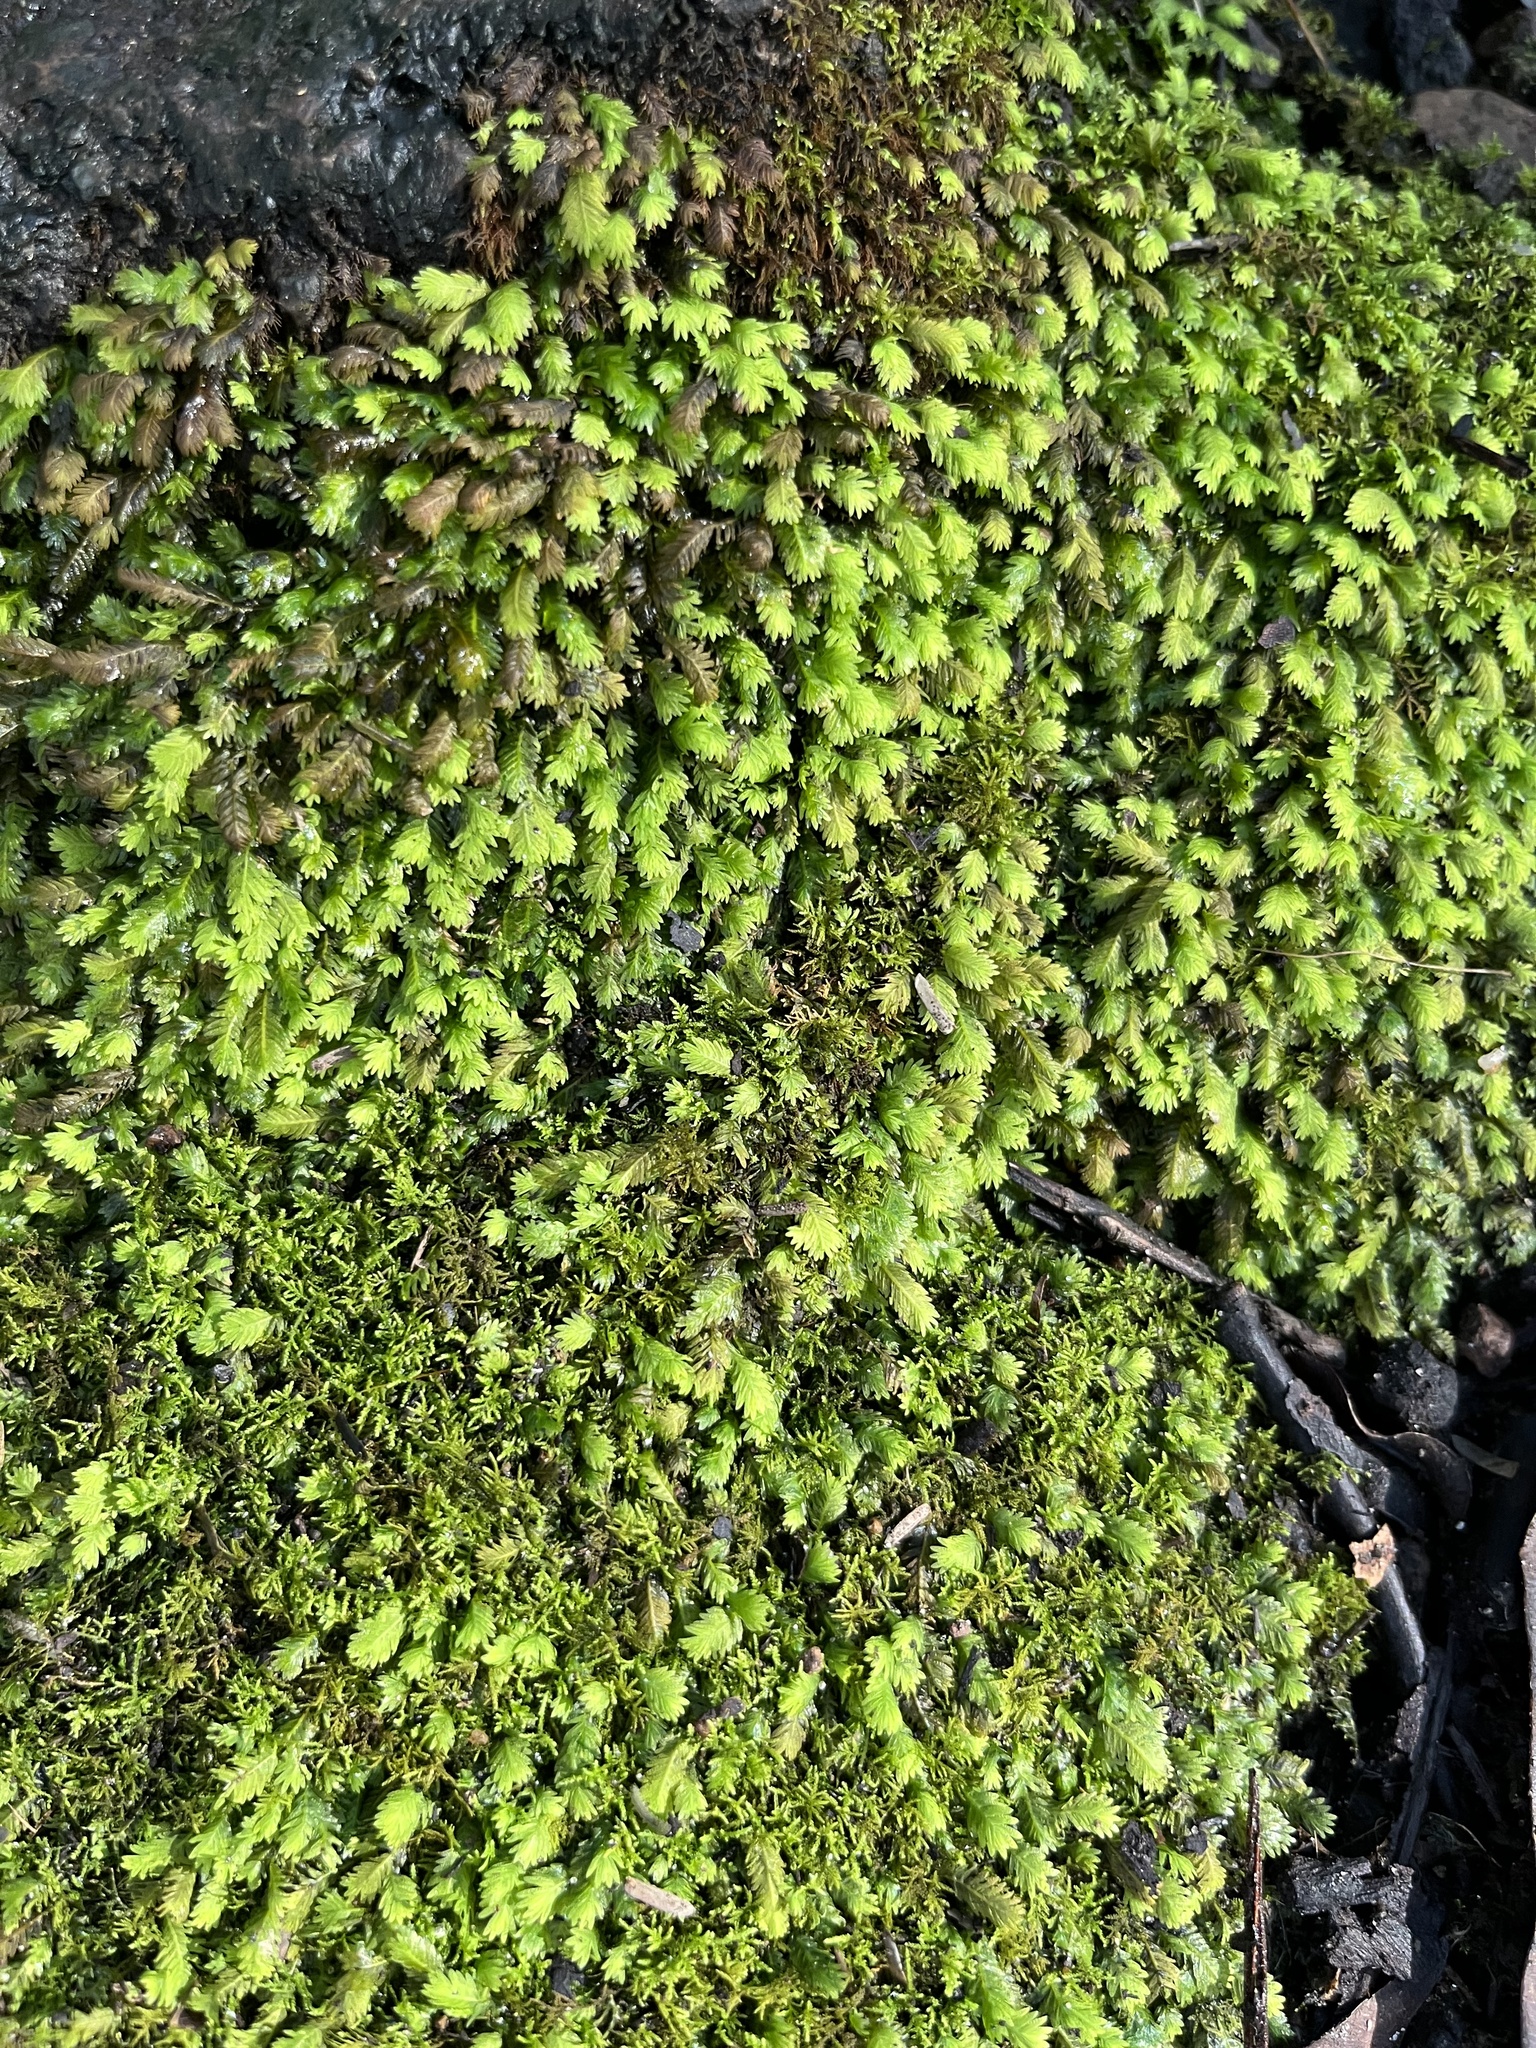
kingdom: Plantae
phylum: Bryophyta
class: Bryopsida
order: Dicranales
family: Fissidentaceae
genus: Fissidens
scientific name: Fissidens asplenioides
